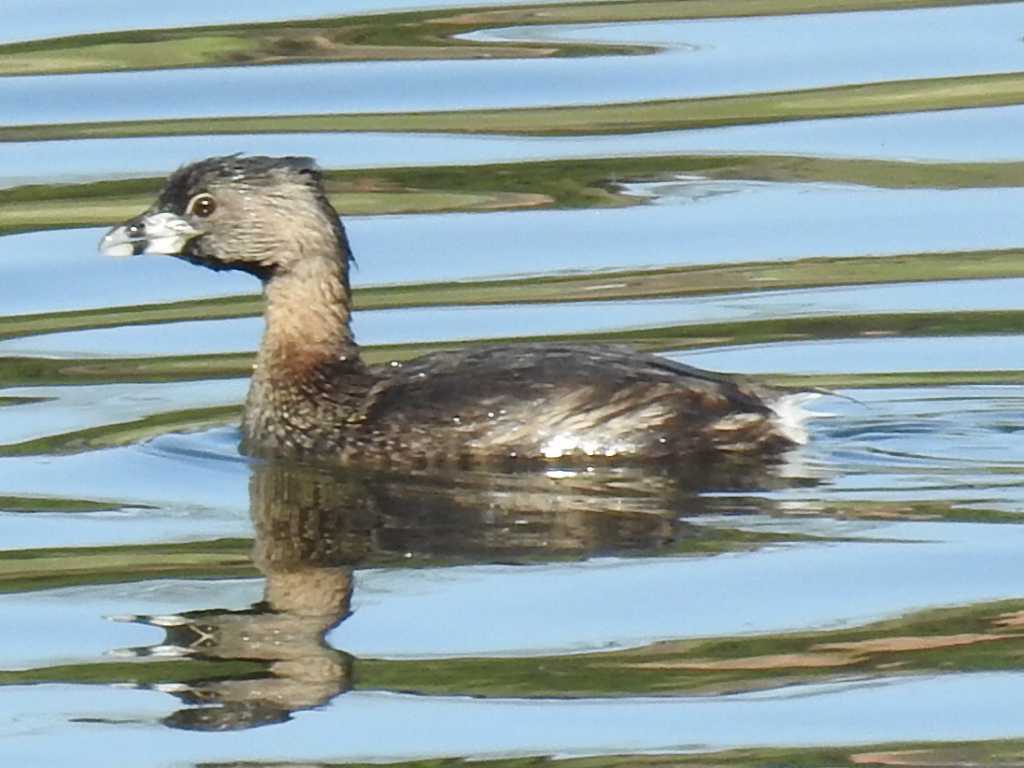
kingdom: Animalia
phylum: Chordata
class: Aves
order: Podicipediformes
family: Podicipedidae
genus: Podilymbus
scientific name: Podilymbus podiceps
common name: Pied-billed grebe
